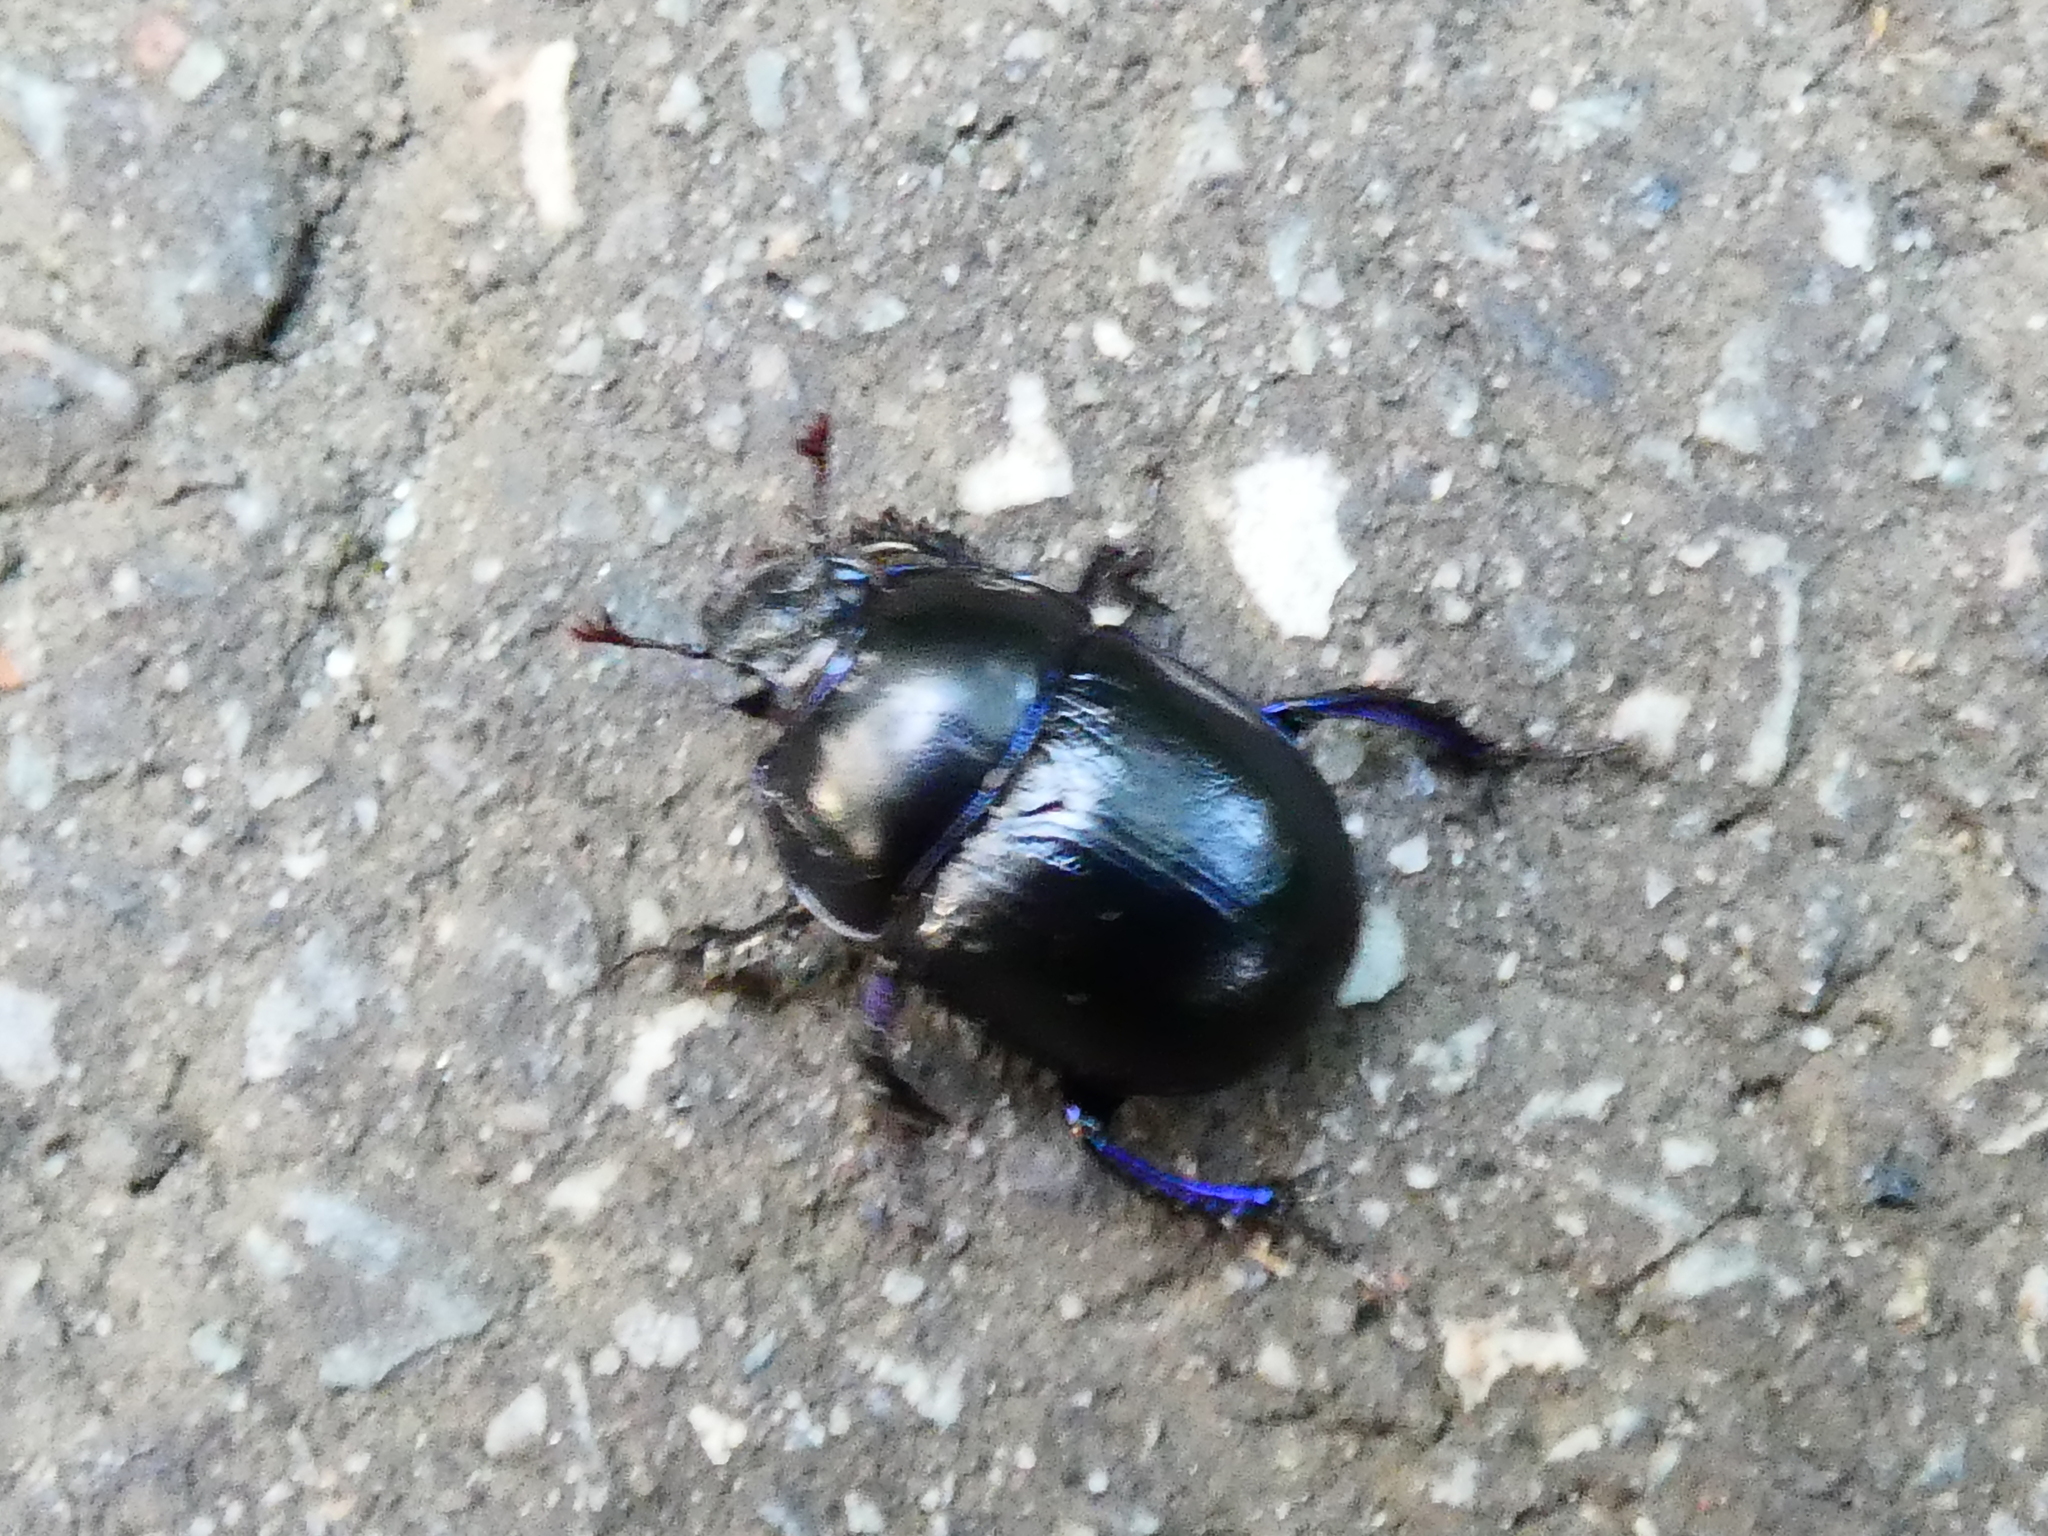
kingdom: Animalia
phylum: Arthropoda
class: Insecta
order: Coleoptera
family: Geotrupidae
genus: Anoplotrupes
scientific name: Anoplotrupes stercorosus
